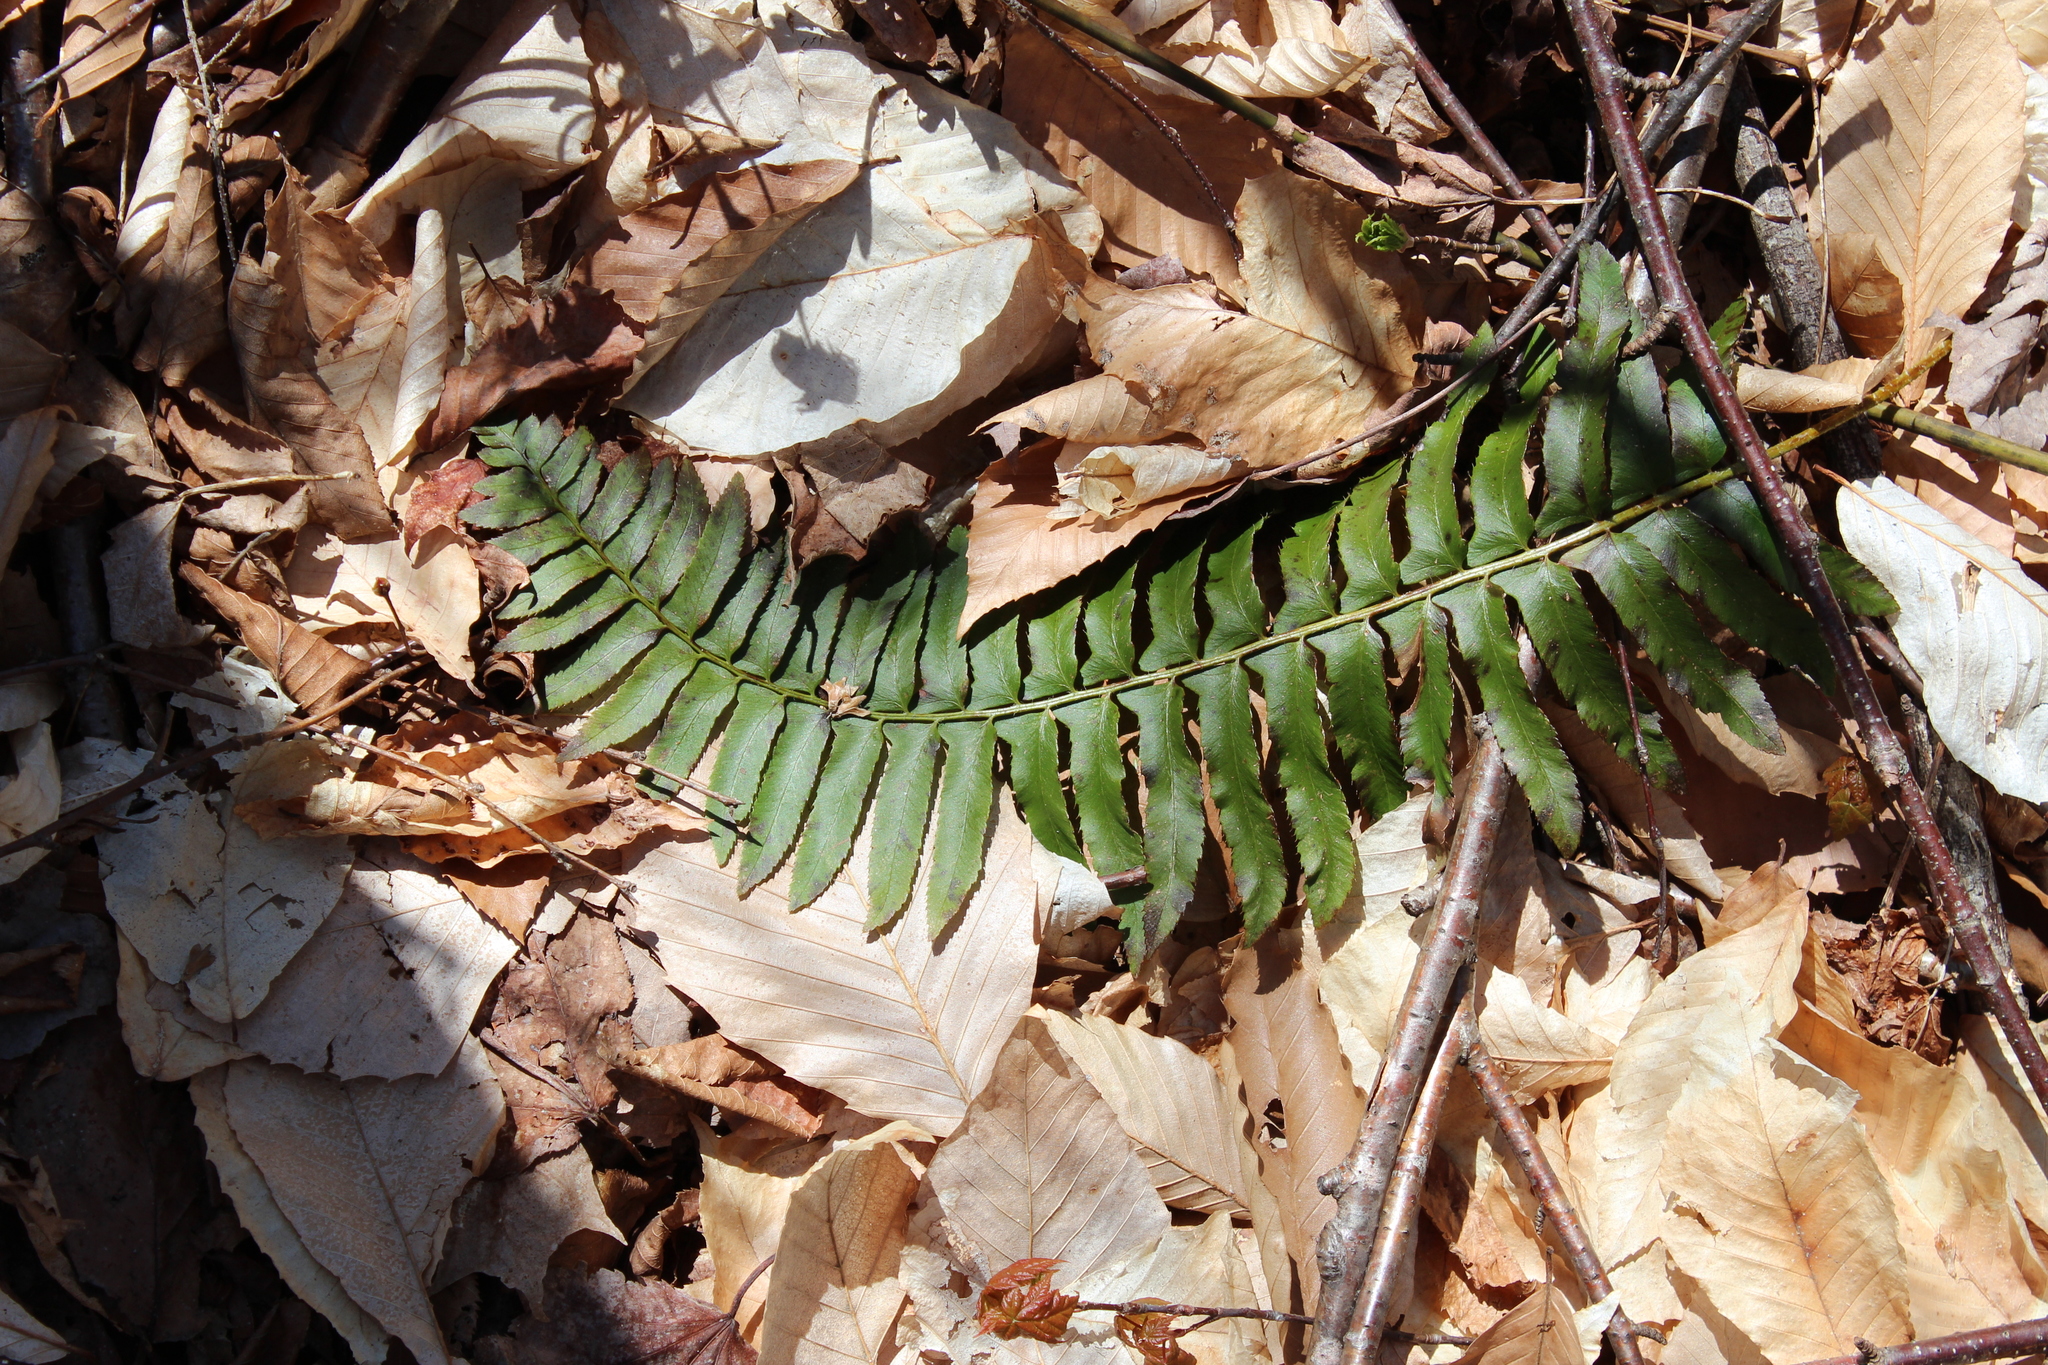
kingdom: Plantae
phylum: Tracheophyta
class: Polypodiopsida
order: Polypodiales
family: Dryopteridaceae
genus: Polystichum
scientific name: Polystichum acrostichoides
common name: Christmas fern
